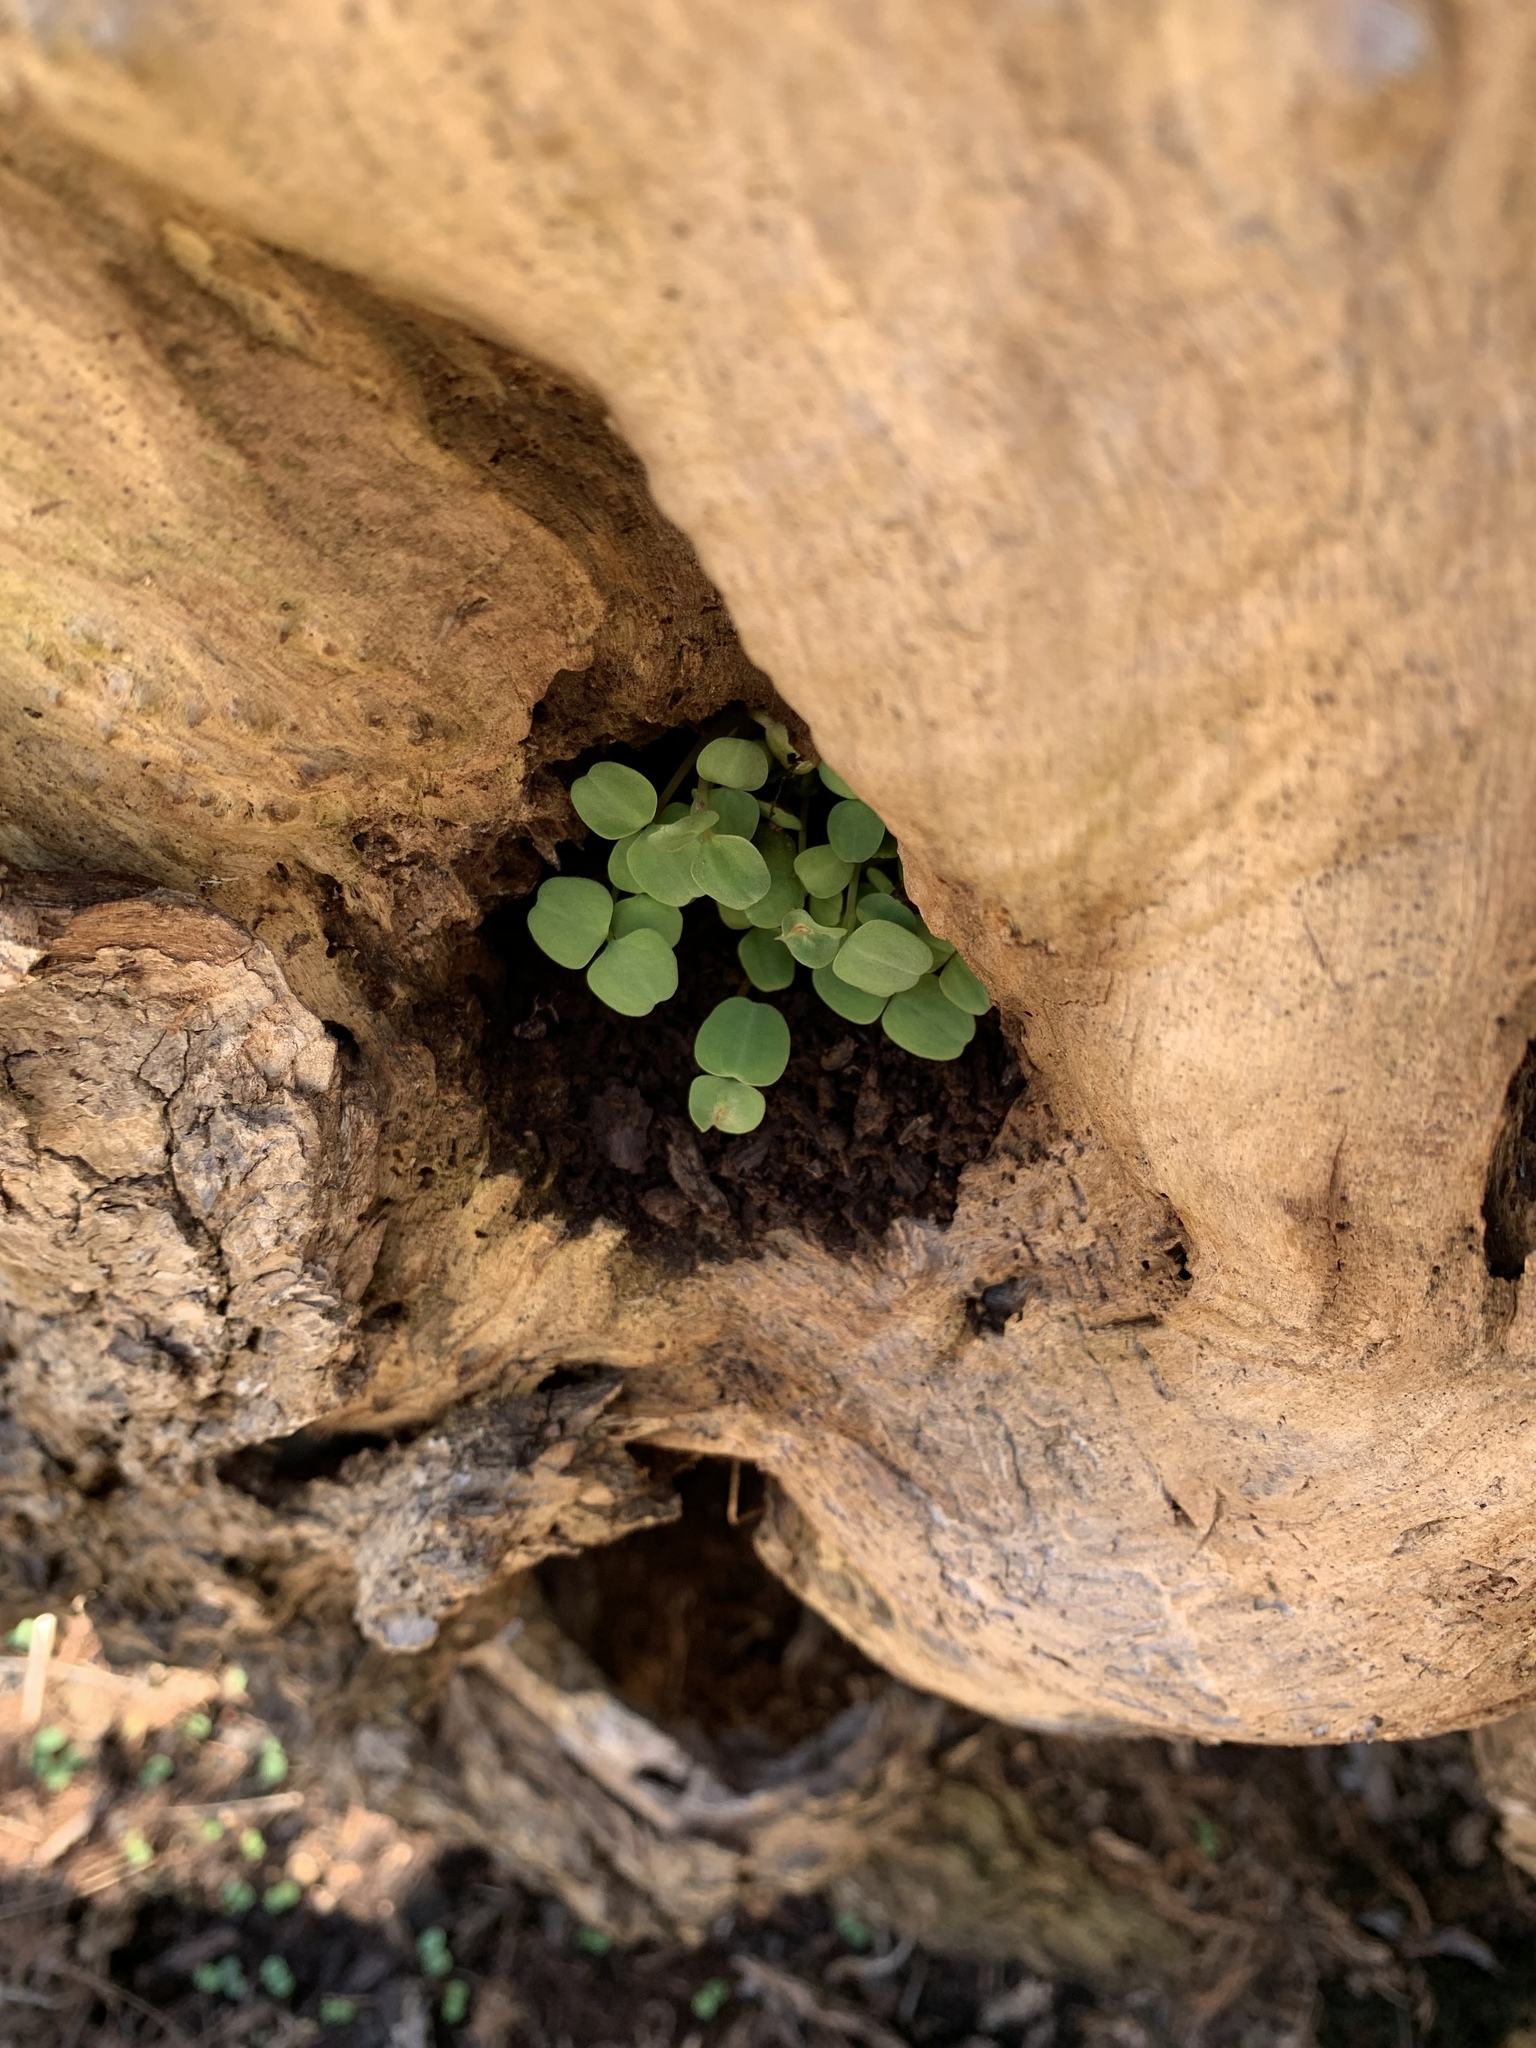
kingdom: Plantae
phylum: Tracheophyta
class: Magnoliopsida
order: Ericales
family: Balsaminaceae
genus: Impatiens
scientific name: Impatiens capensis
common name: Orange balsam
